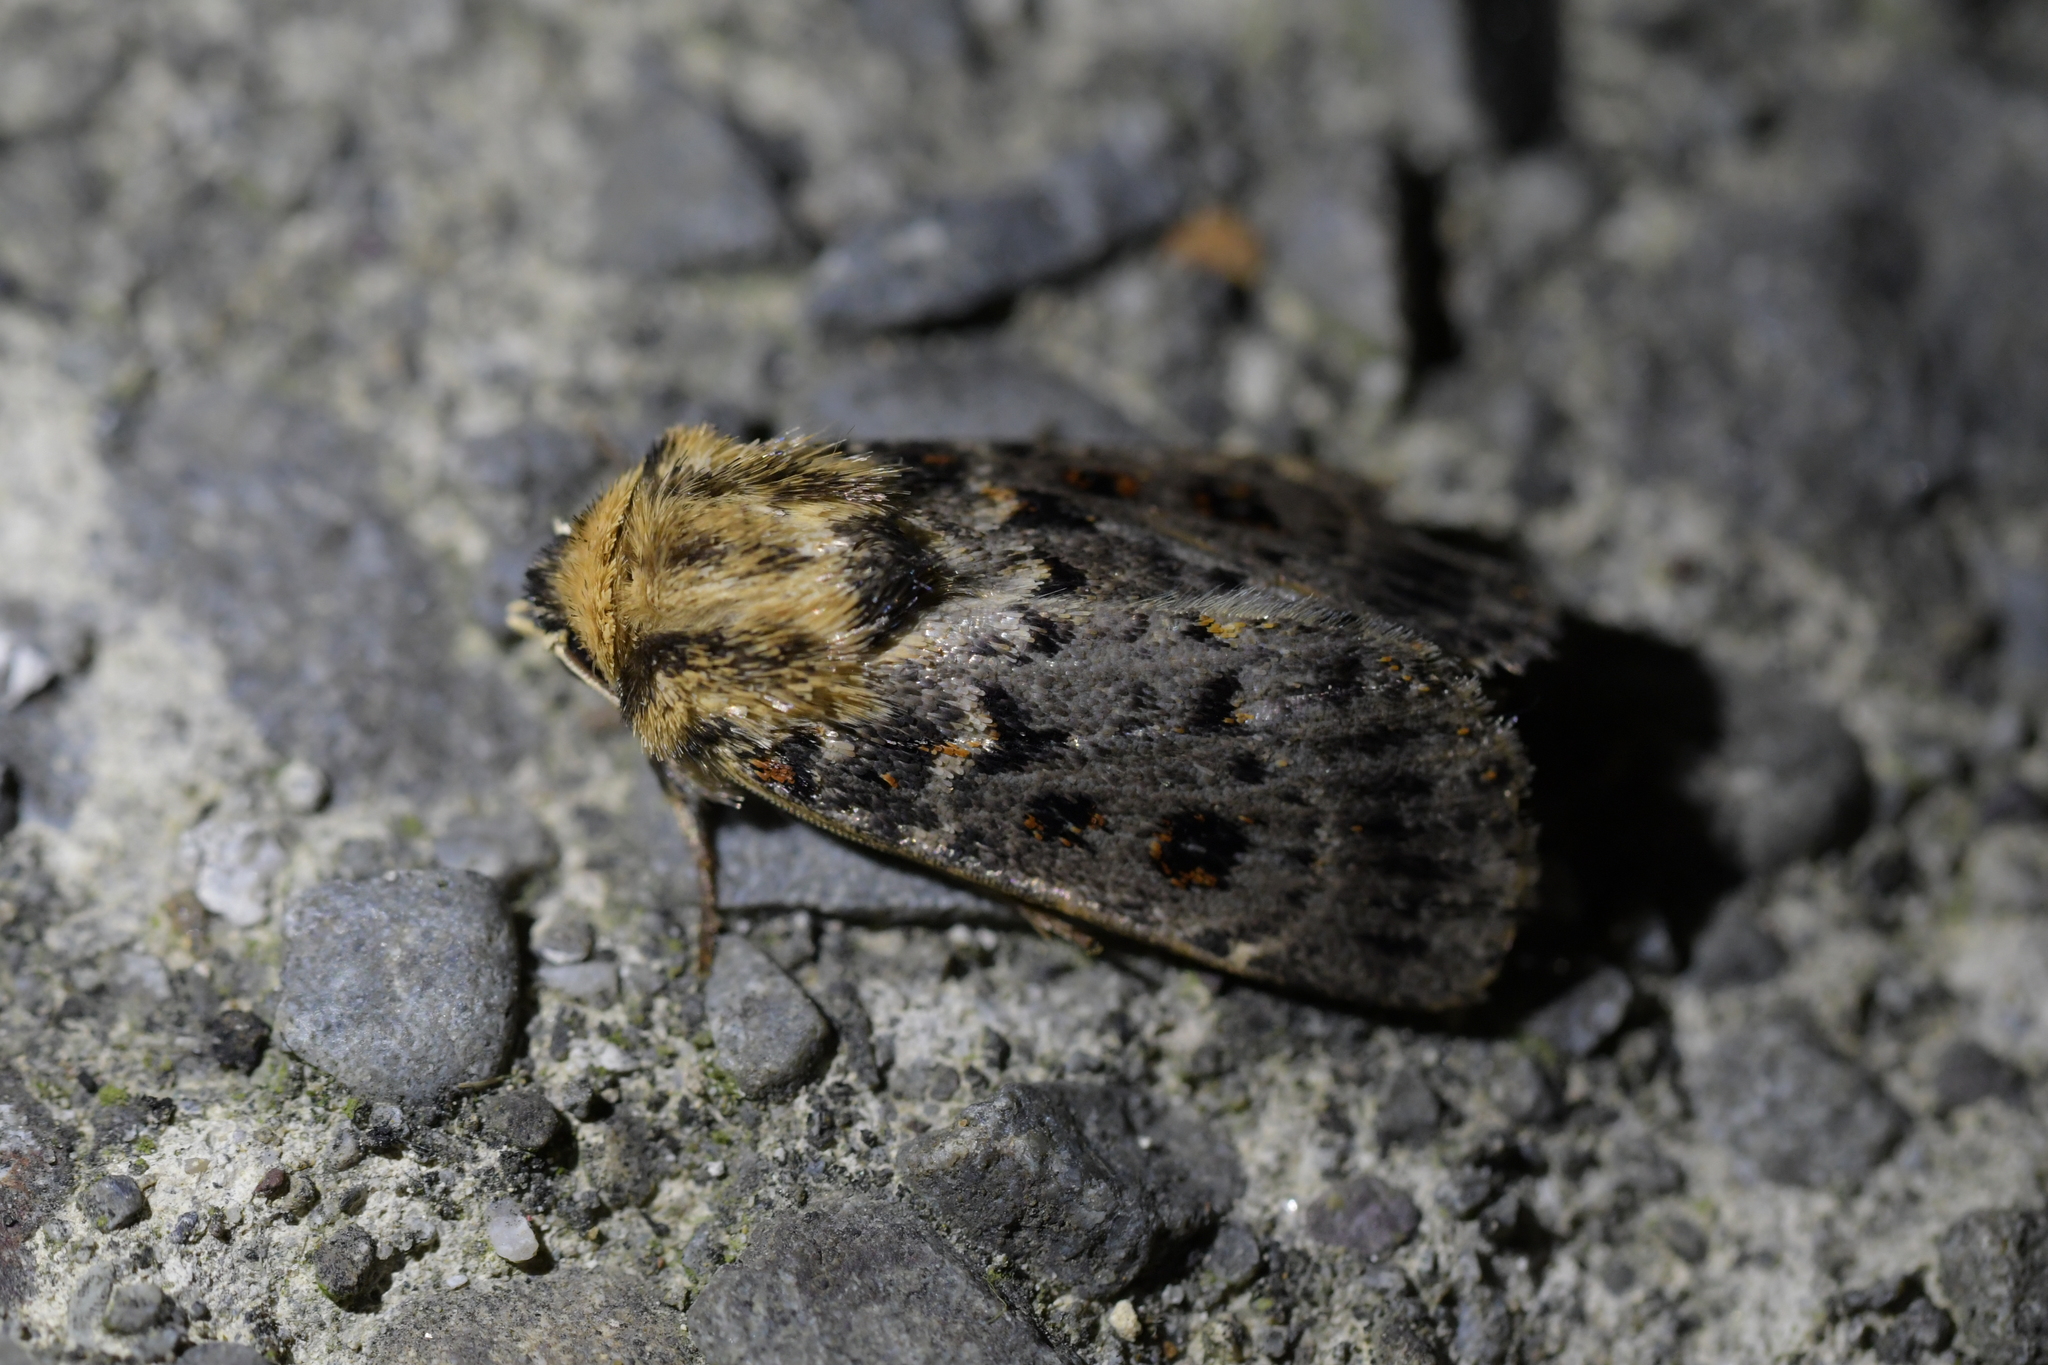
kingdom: Animalia
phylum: Arthropoda
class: Insecta
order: Lepidoptera
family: Noctuidae
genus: Proteuxoa
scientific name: Proteuxoa sanguinipuncta
